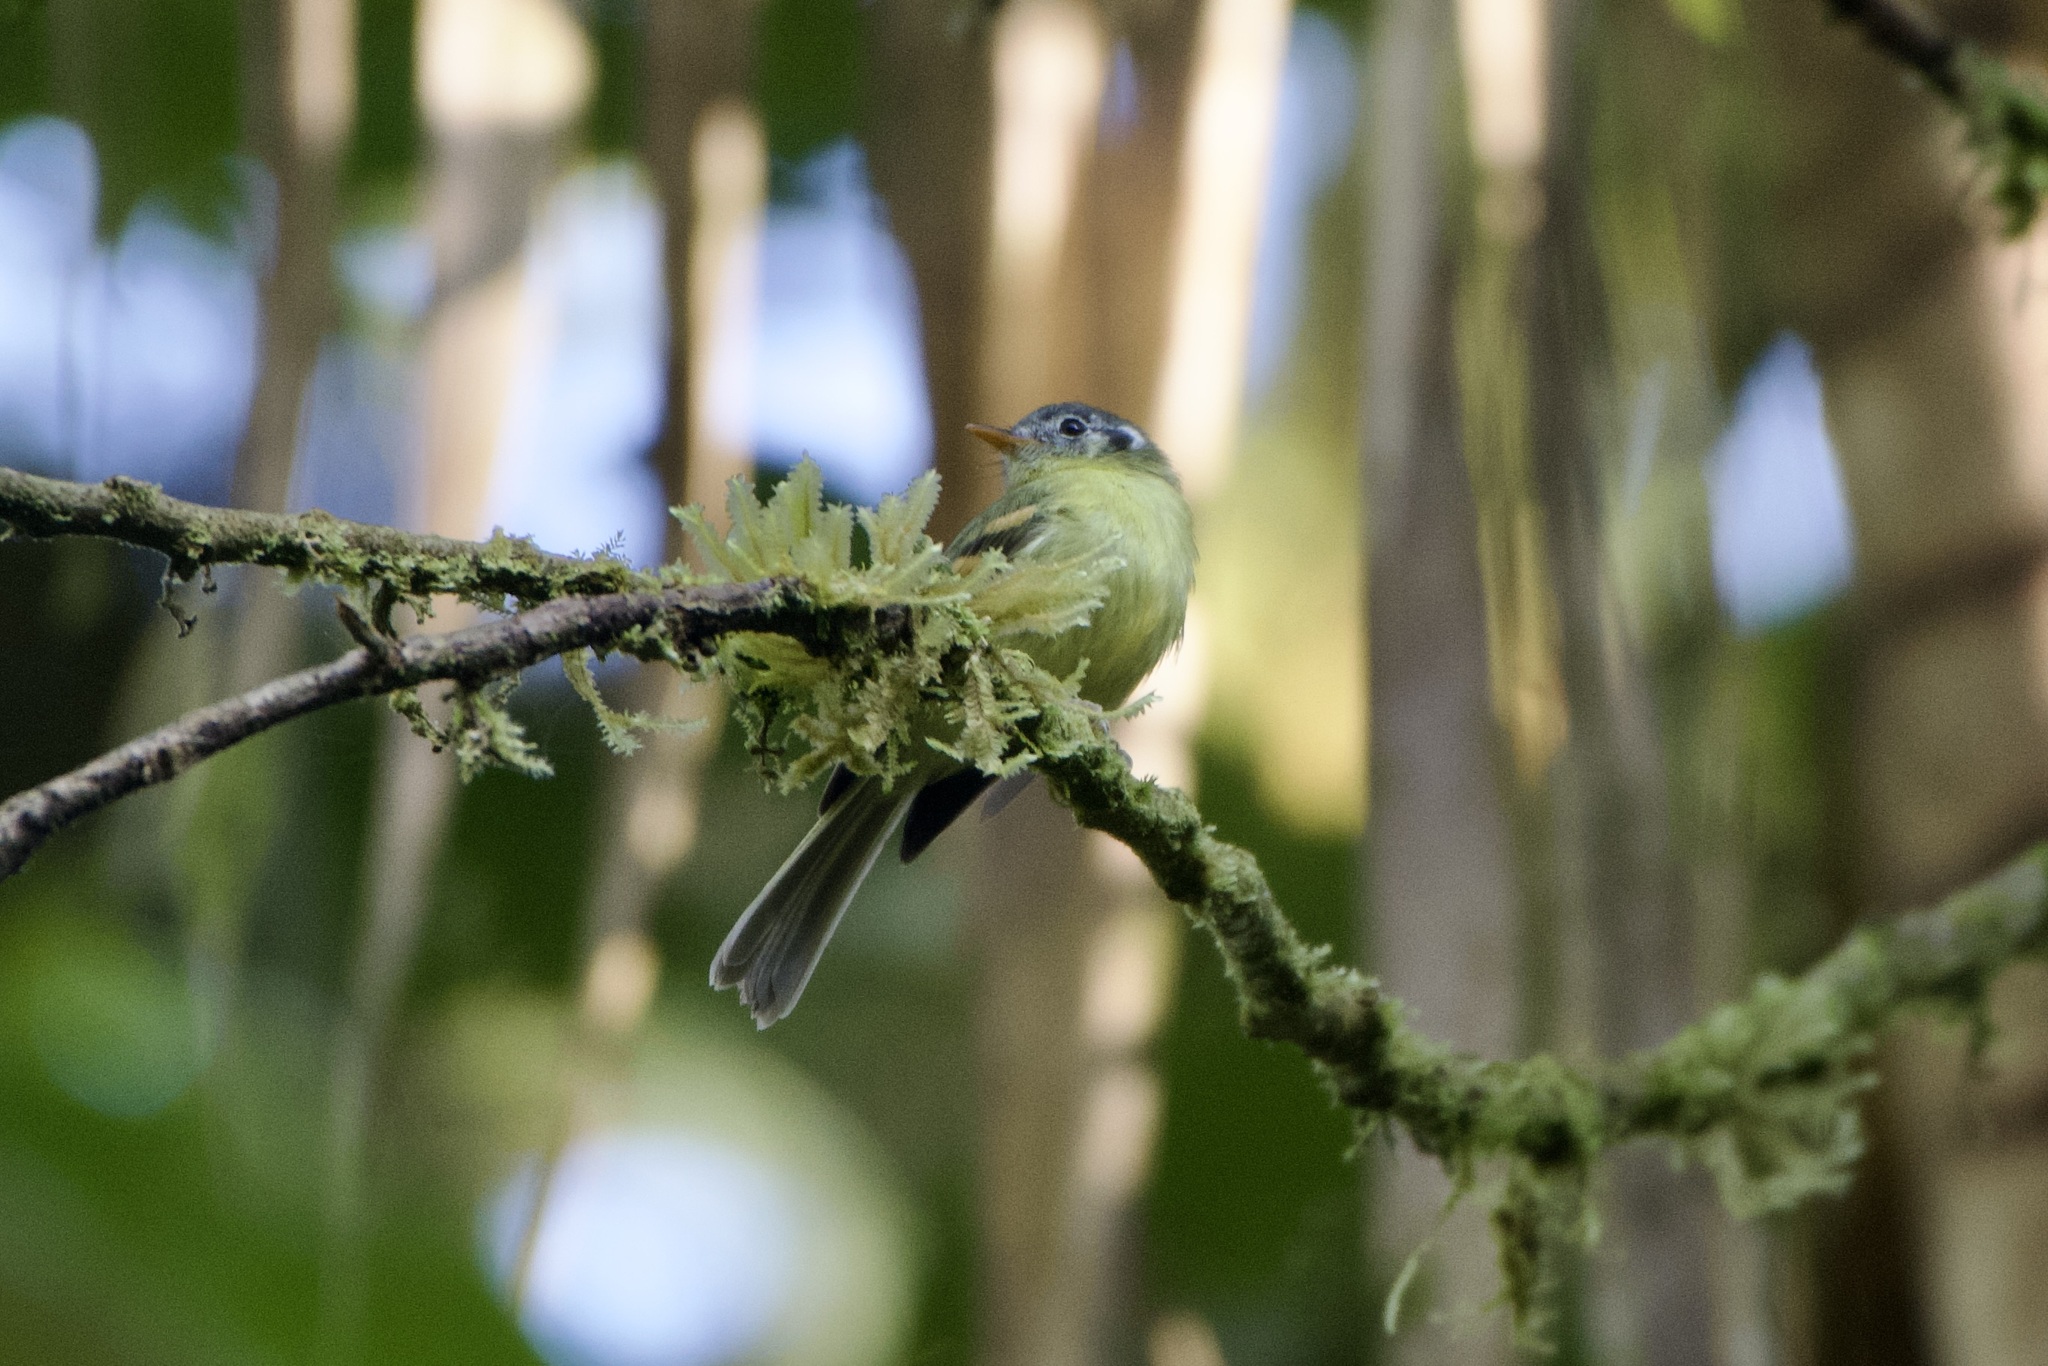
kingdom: Animalia
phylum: Chordata
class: Aves
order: Passeriformes
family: Tyrannidae
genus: Leptopogon
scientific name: Leptopogon superciliaris
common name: Slaty-capped flycatcher
